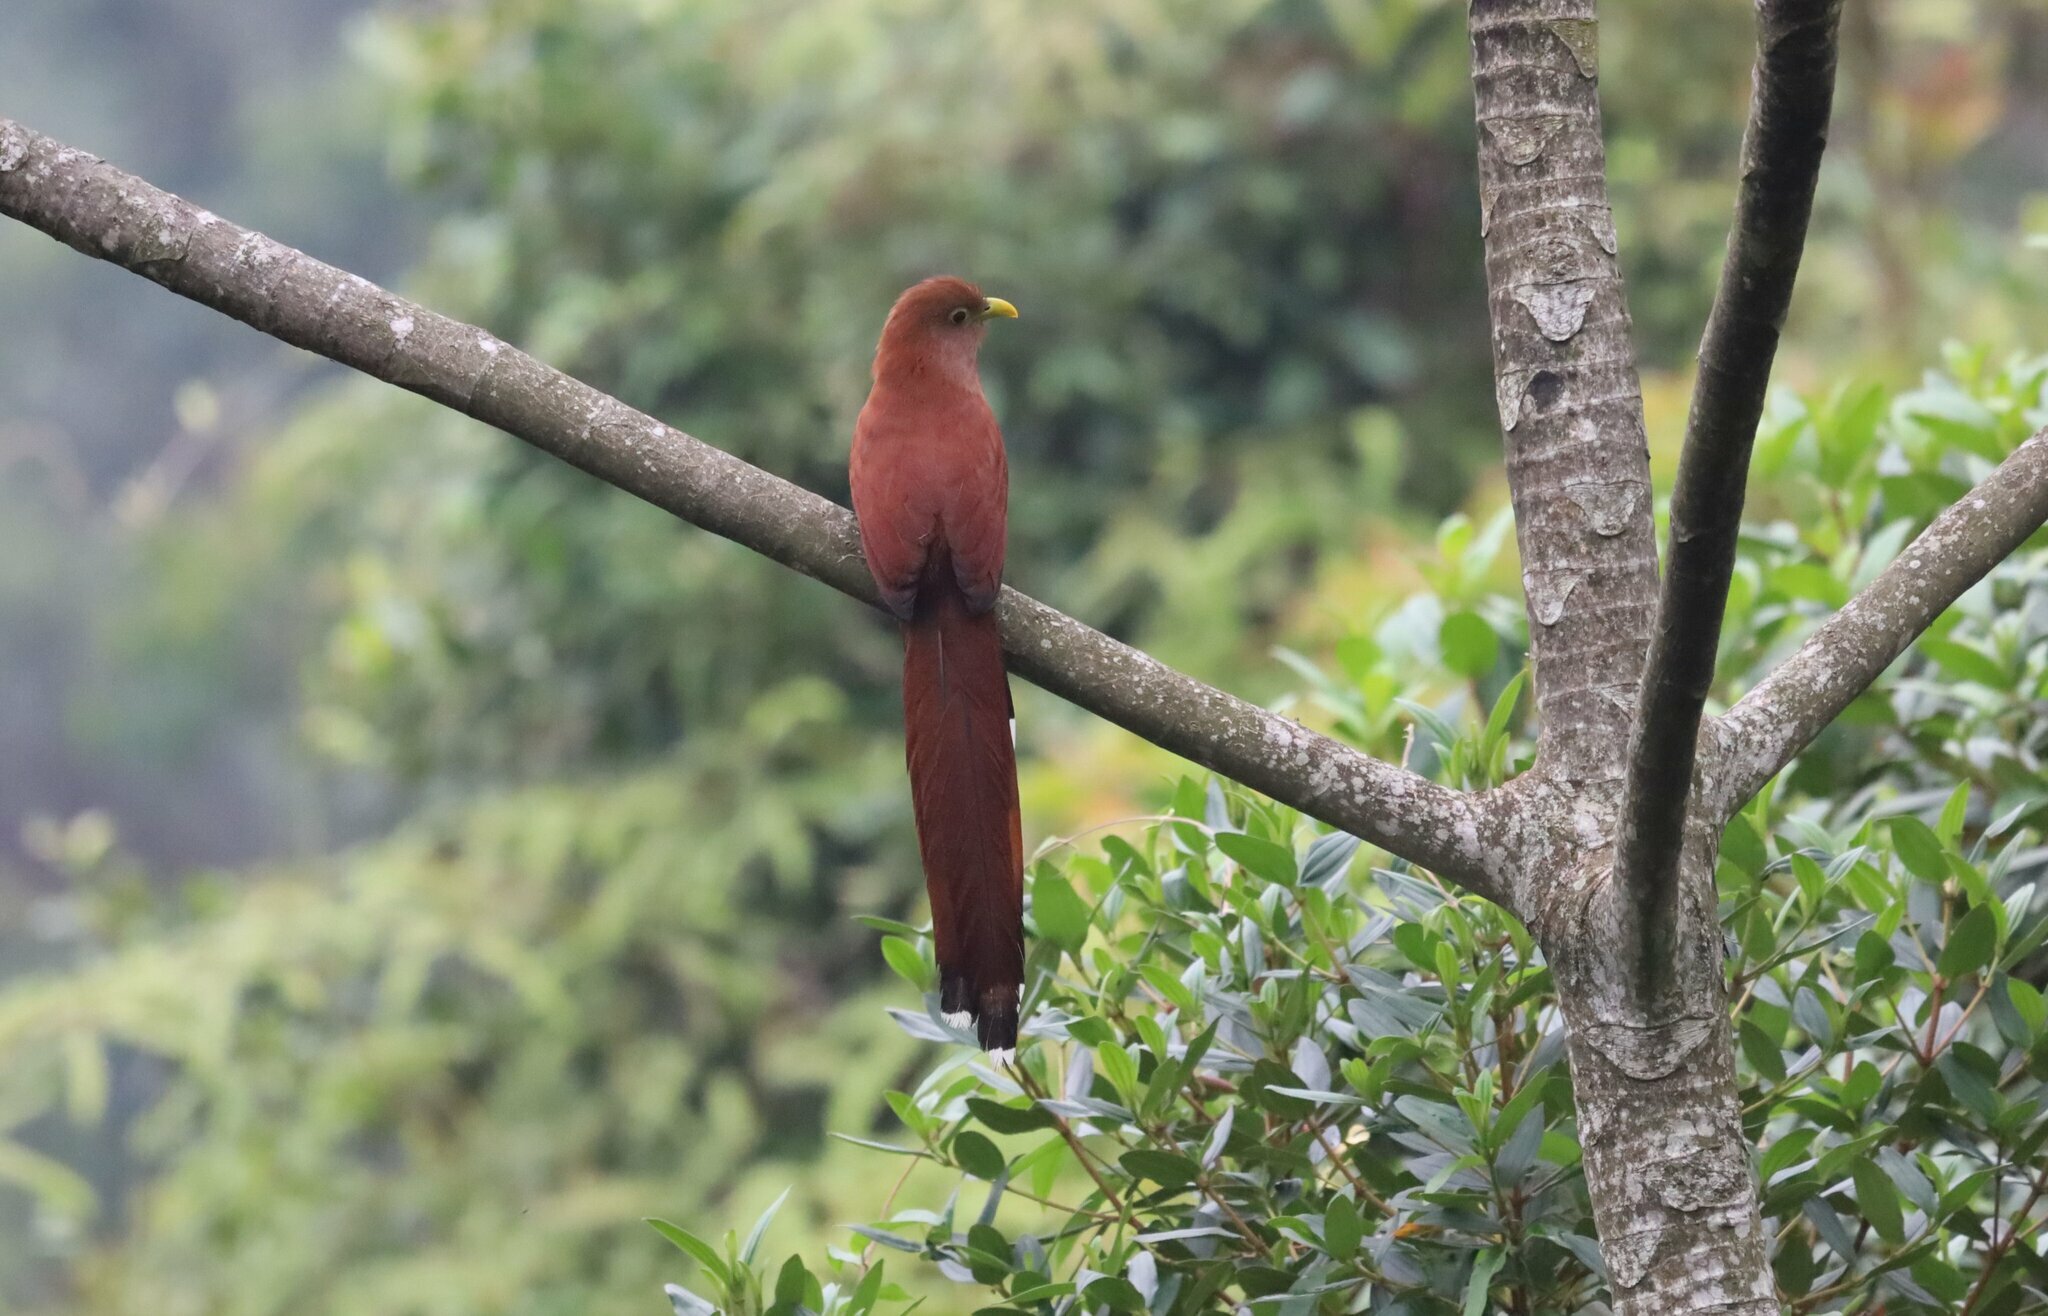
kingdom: Animalia
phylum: Chordata
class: Aves
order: Cuculiformes
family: Cuculidae
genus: Piaya
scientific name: Piaya cayana
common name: Squirrel cuckoo
